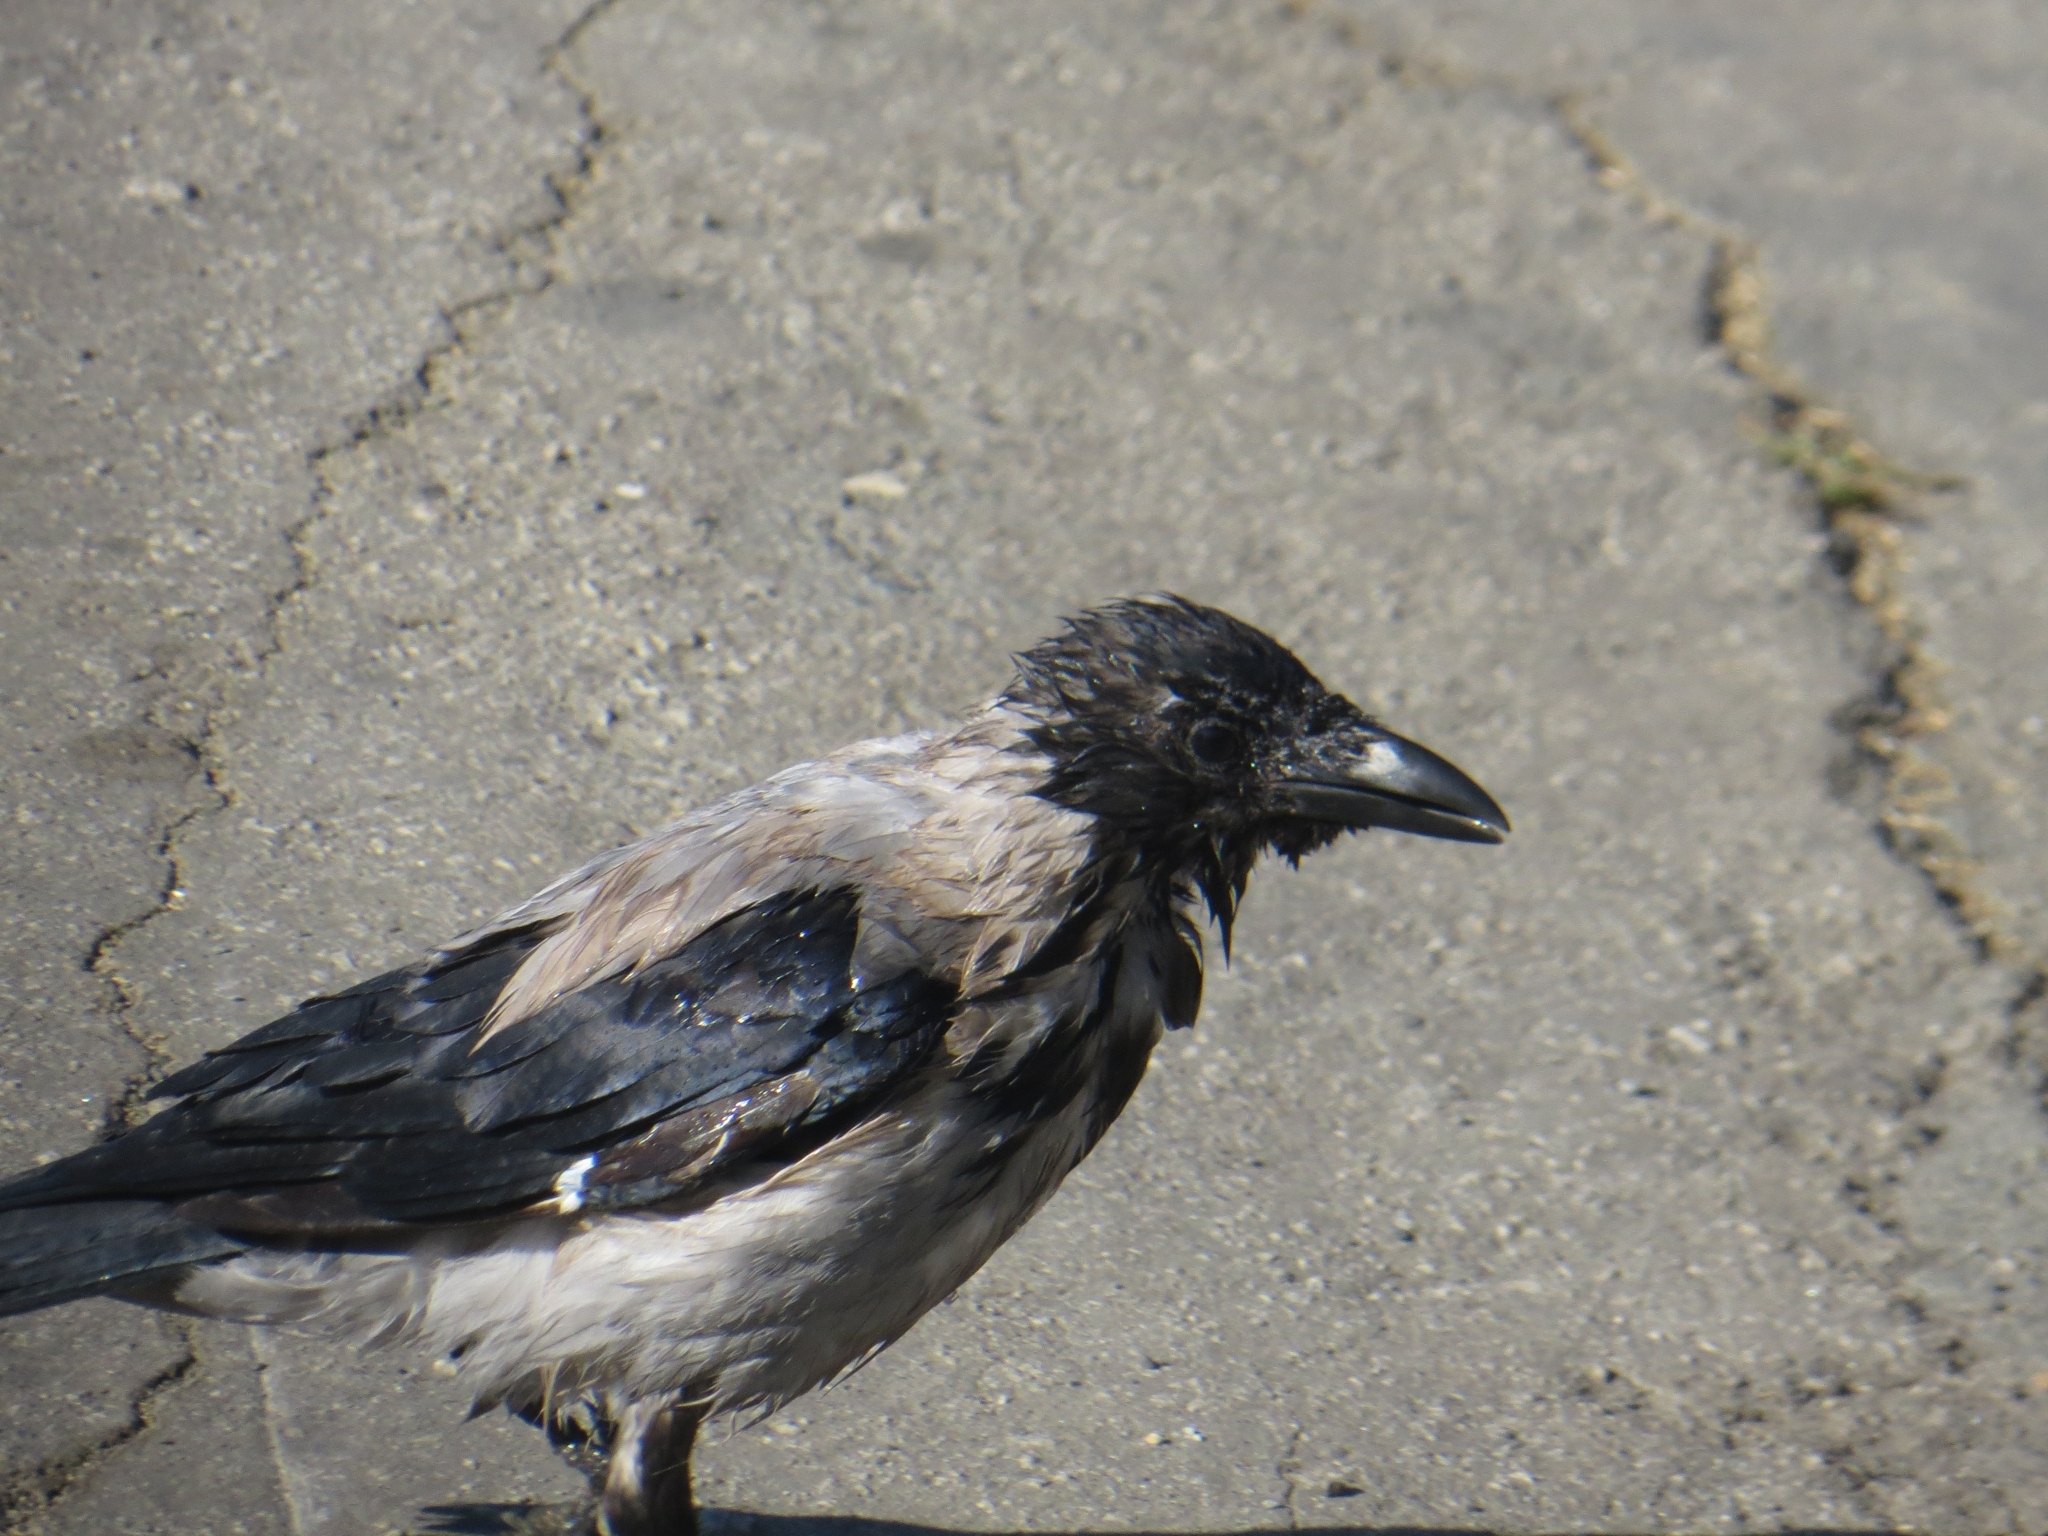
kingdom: Animalia
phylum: Chordata
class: Aves
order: Passeriformes
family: Corvidae
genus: Corvus
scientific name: Corvus cornix
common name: Hooded crow
